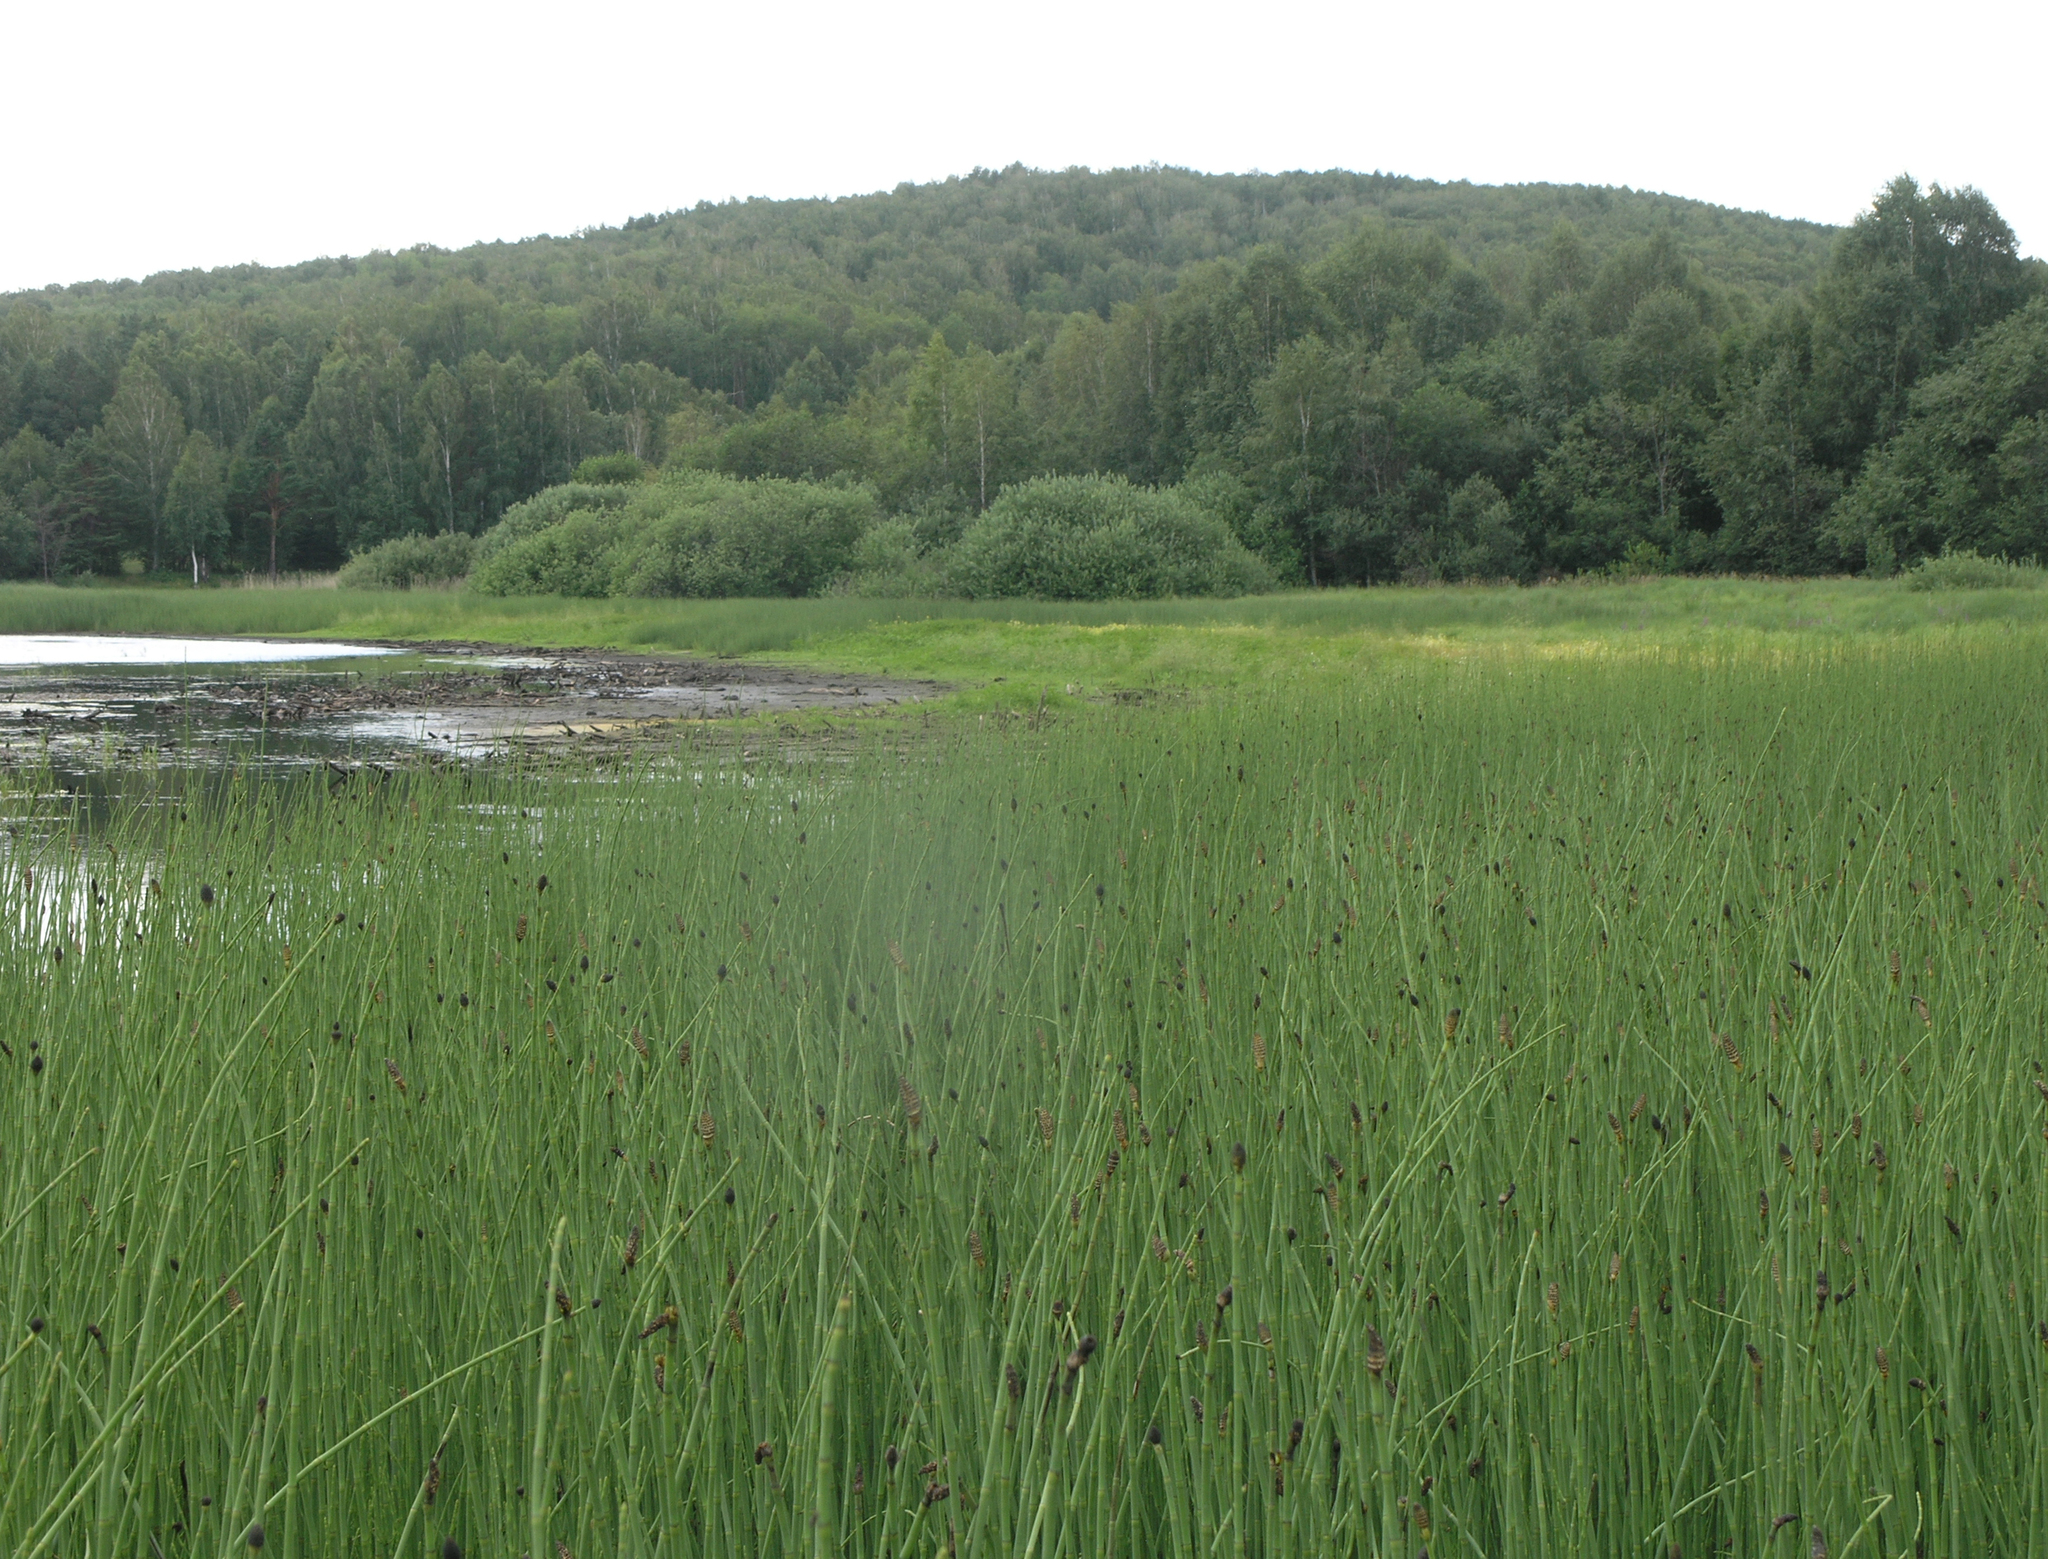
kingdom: Plantae
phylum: Tracheophyta
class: Polypodiopsida
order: Equisetales
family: Equisetaceae
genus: Equisetum
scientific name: Equisetum fluviatile
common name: Water horsetail
